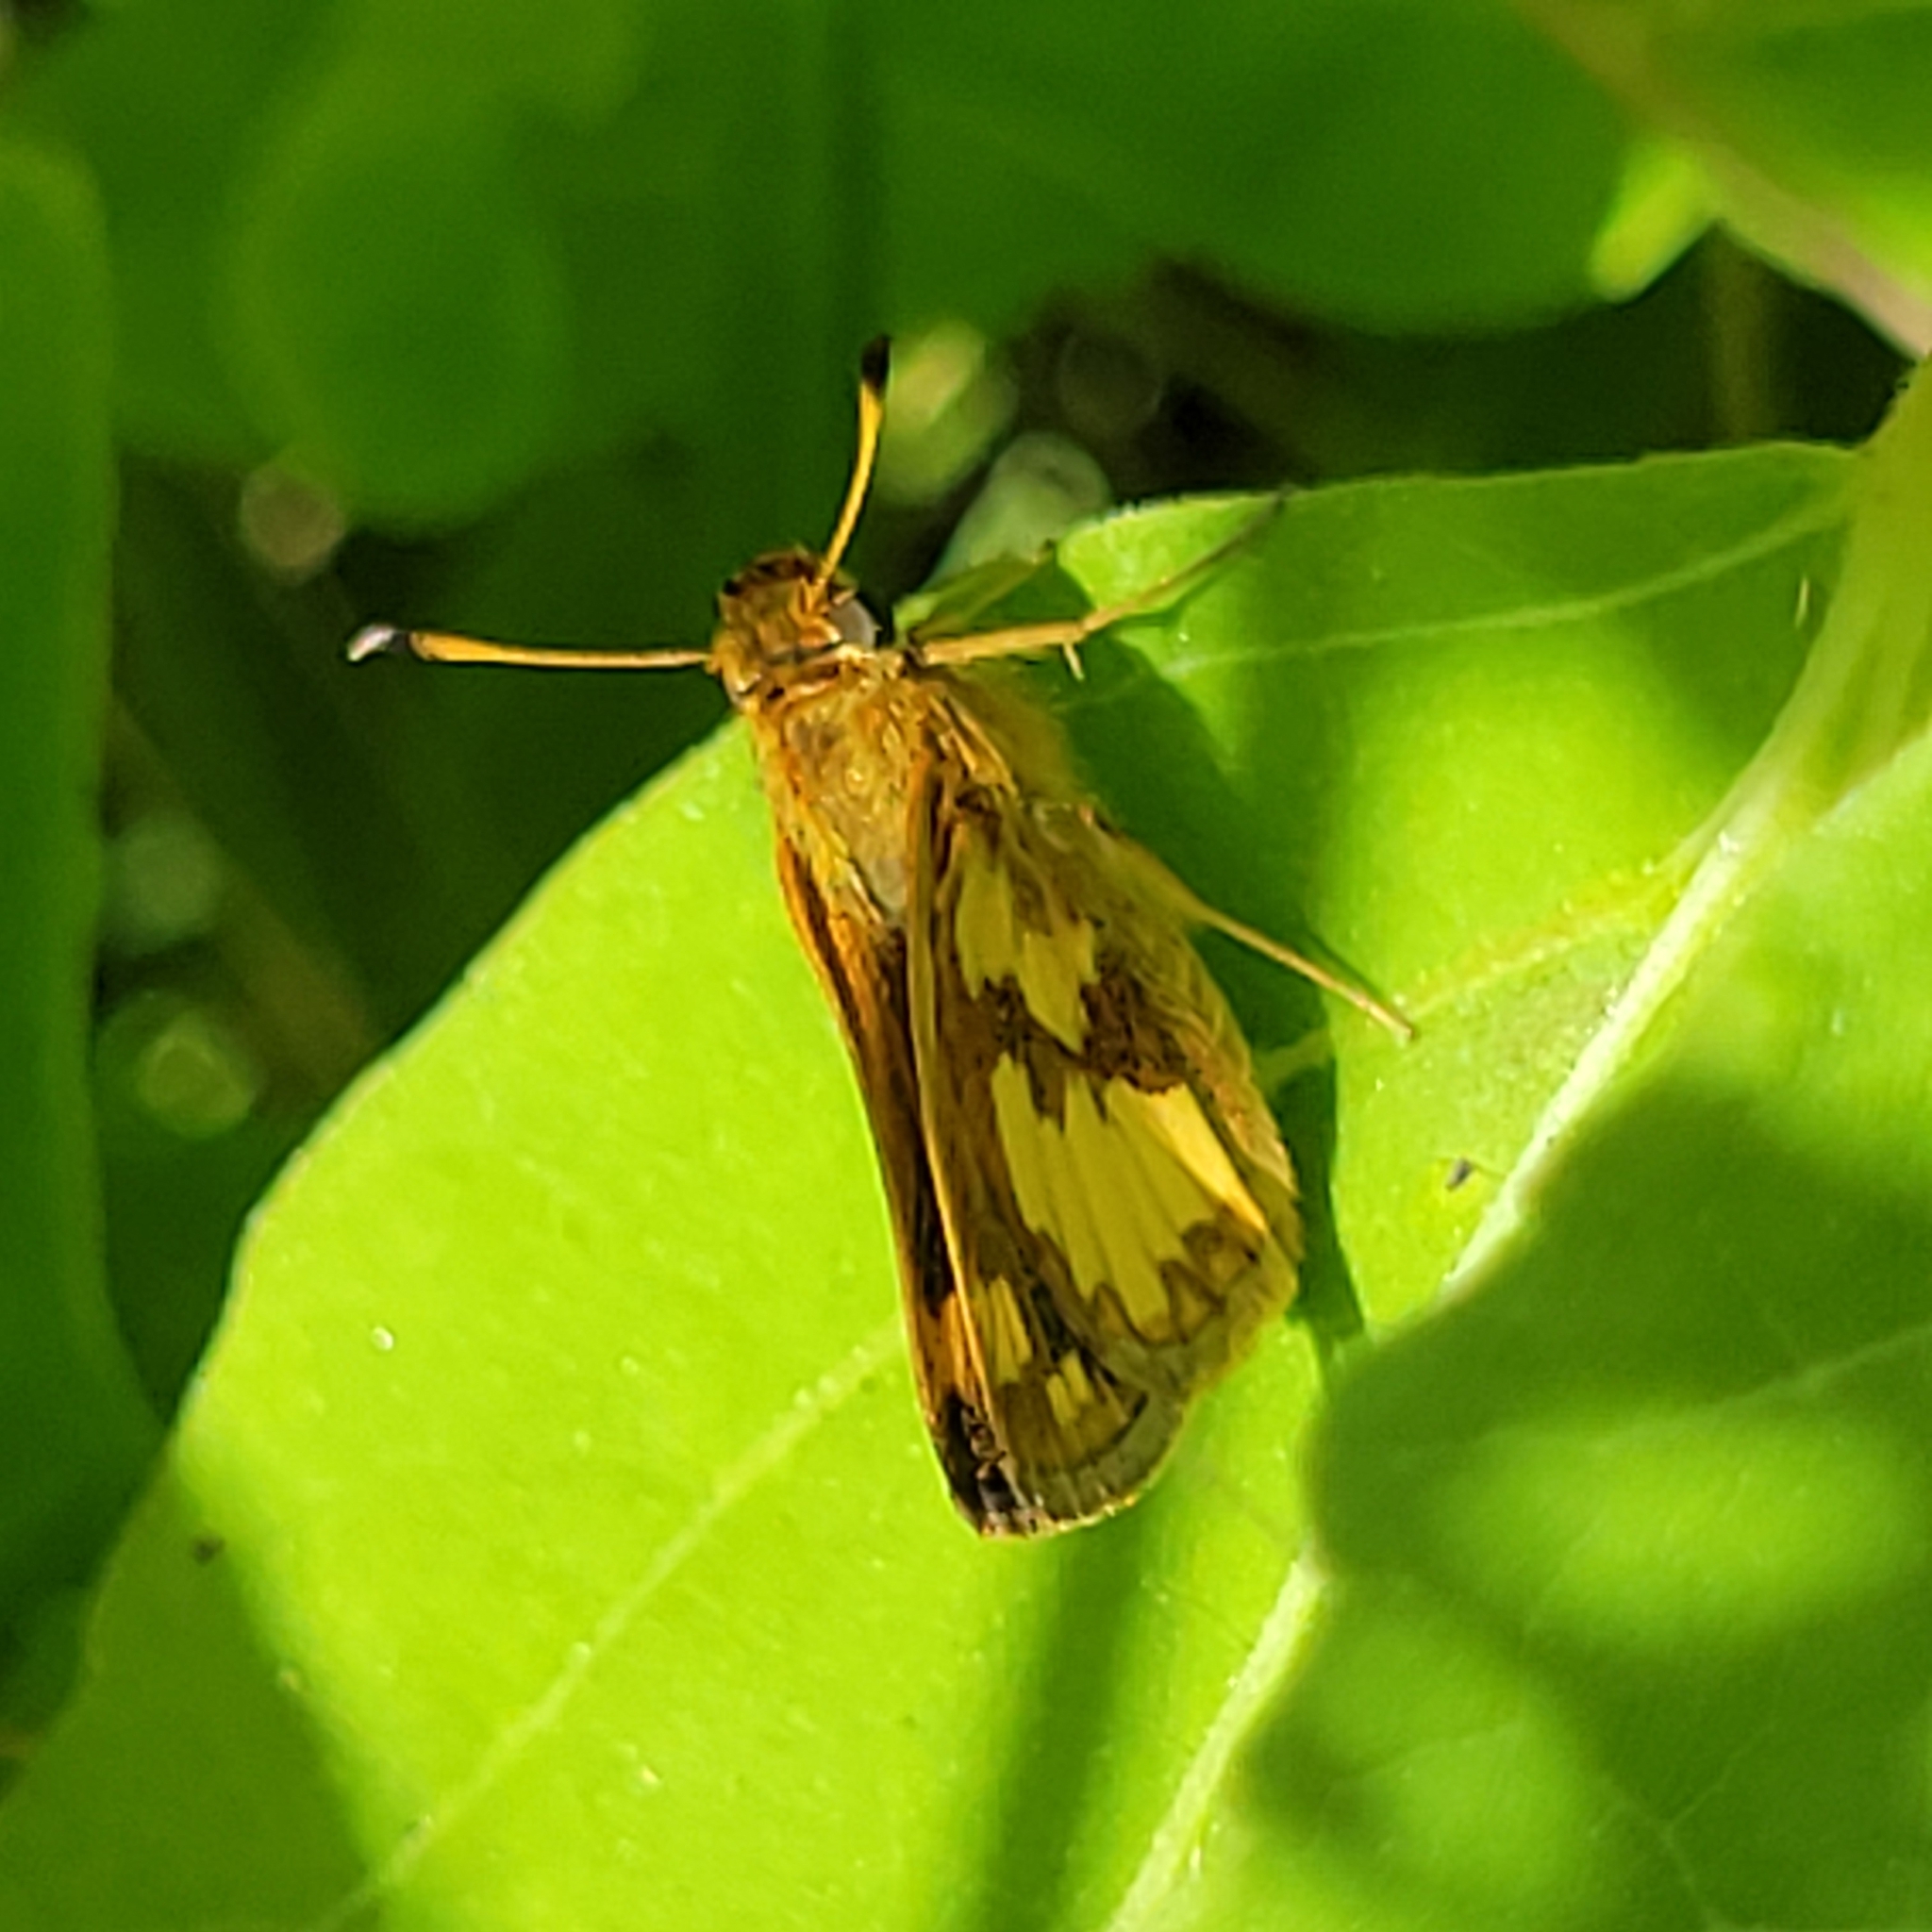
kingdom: Animalia
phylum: Arthropoda
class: Insecta
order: Lepidoptera
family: Hesperiidae
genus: Polites
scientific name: Polites coras
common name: Peck's skipper
